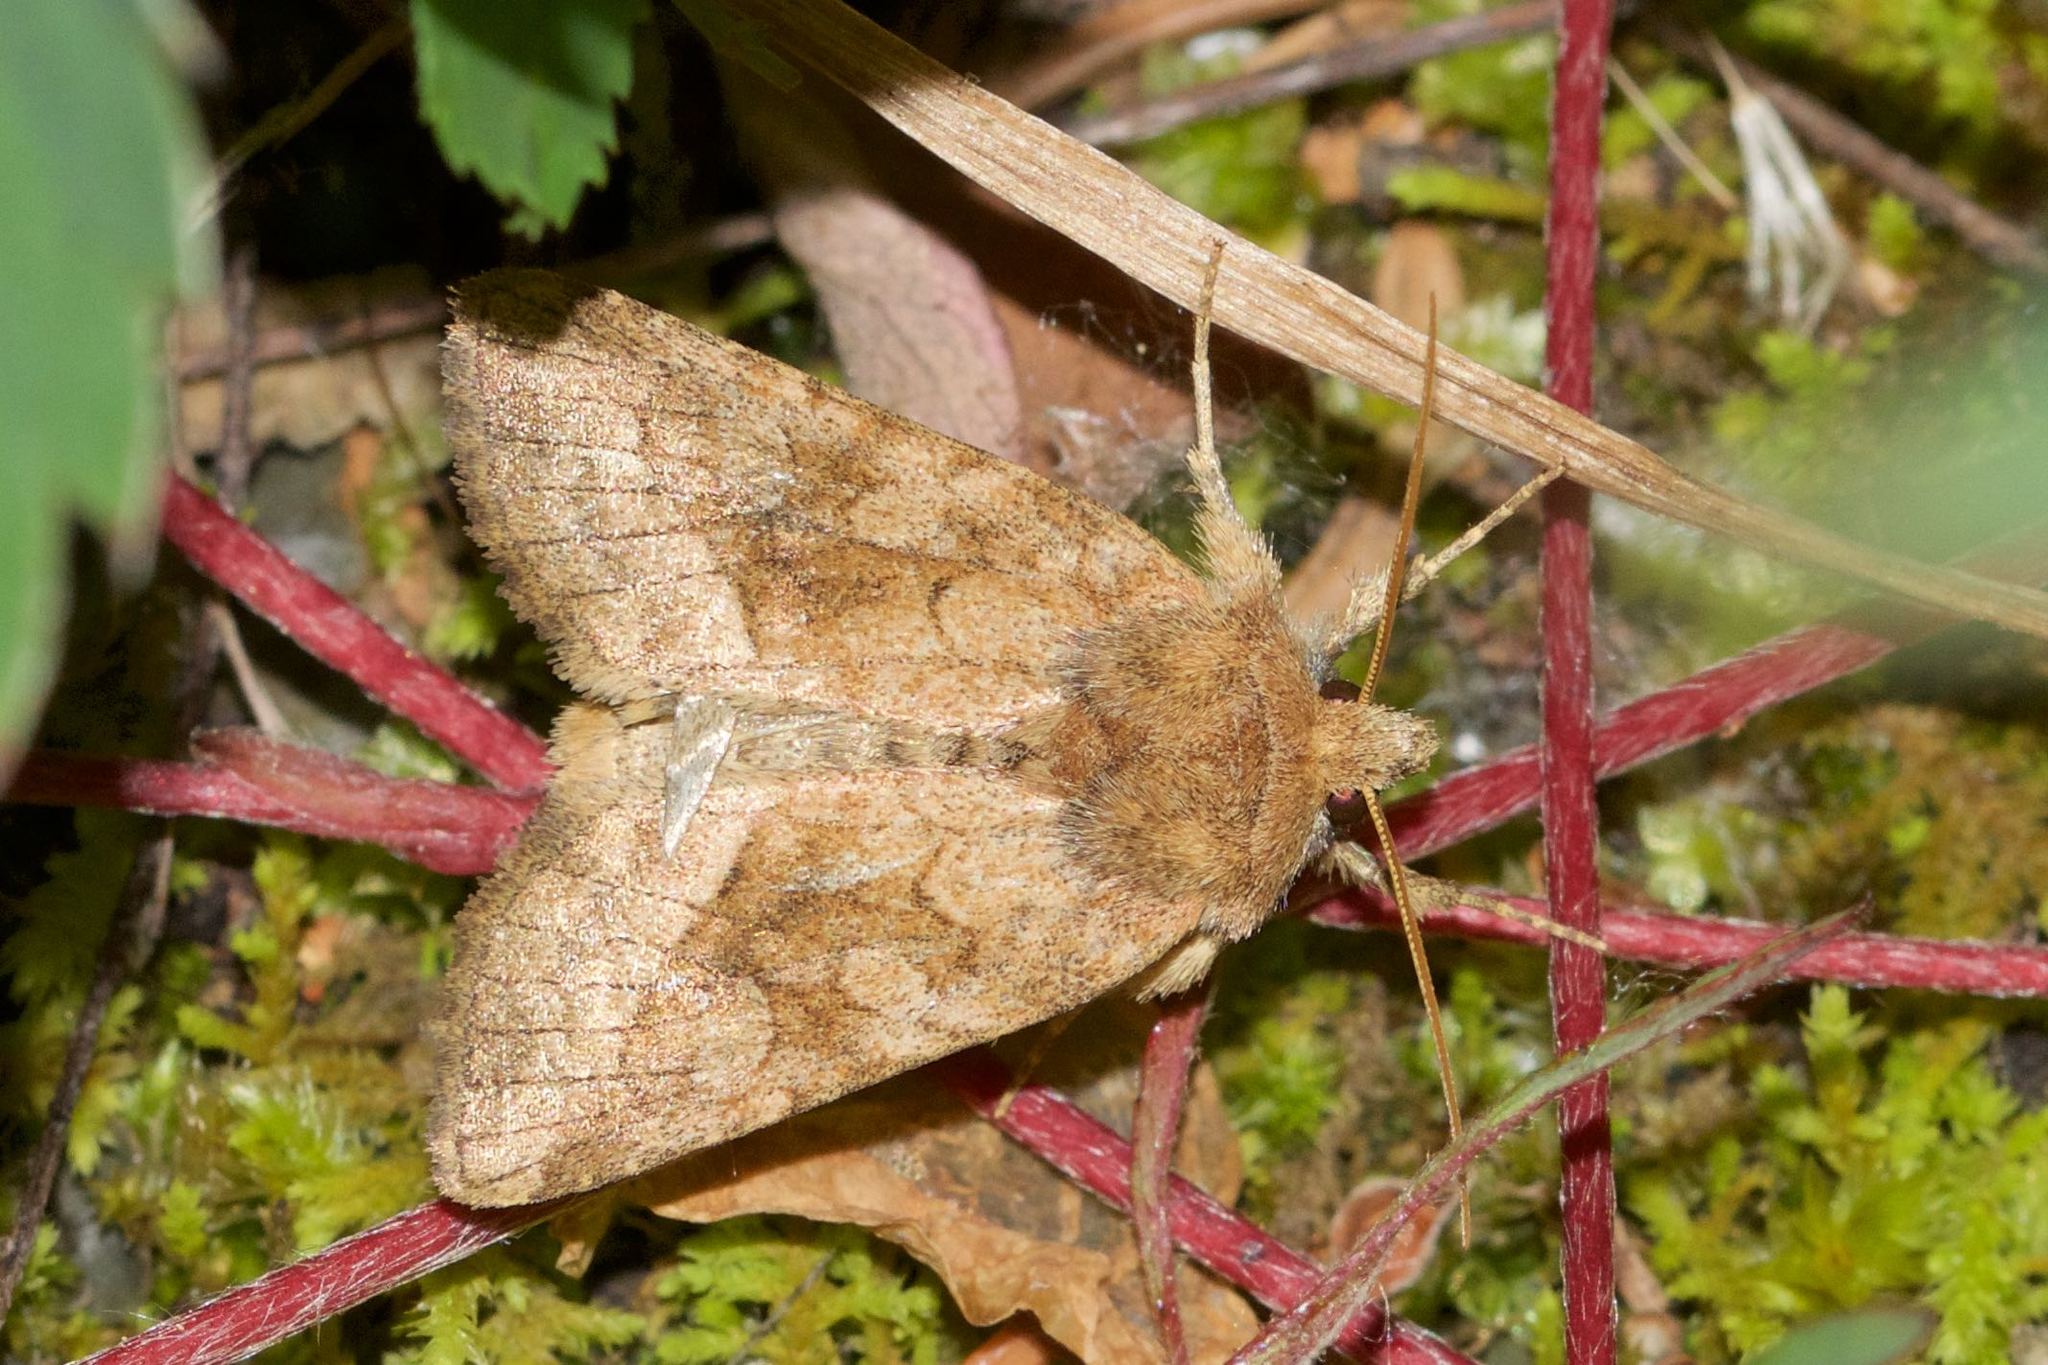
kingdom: Animalia
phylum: Arthropoda
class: Insecta
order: Lepidoptera
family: Noctuidae
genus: Lacinipolia
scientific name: Lacinipolia lorea
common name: Bridled arches moth
